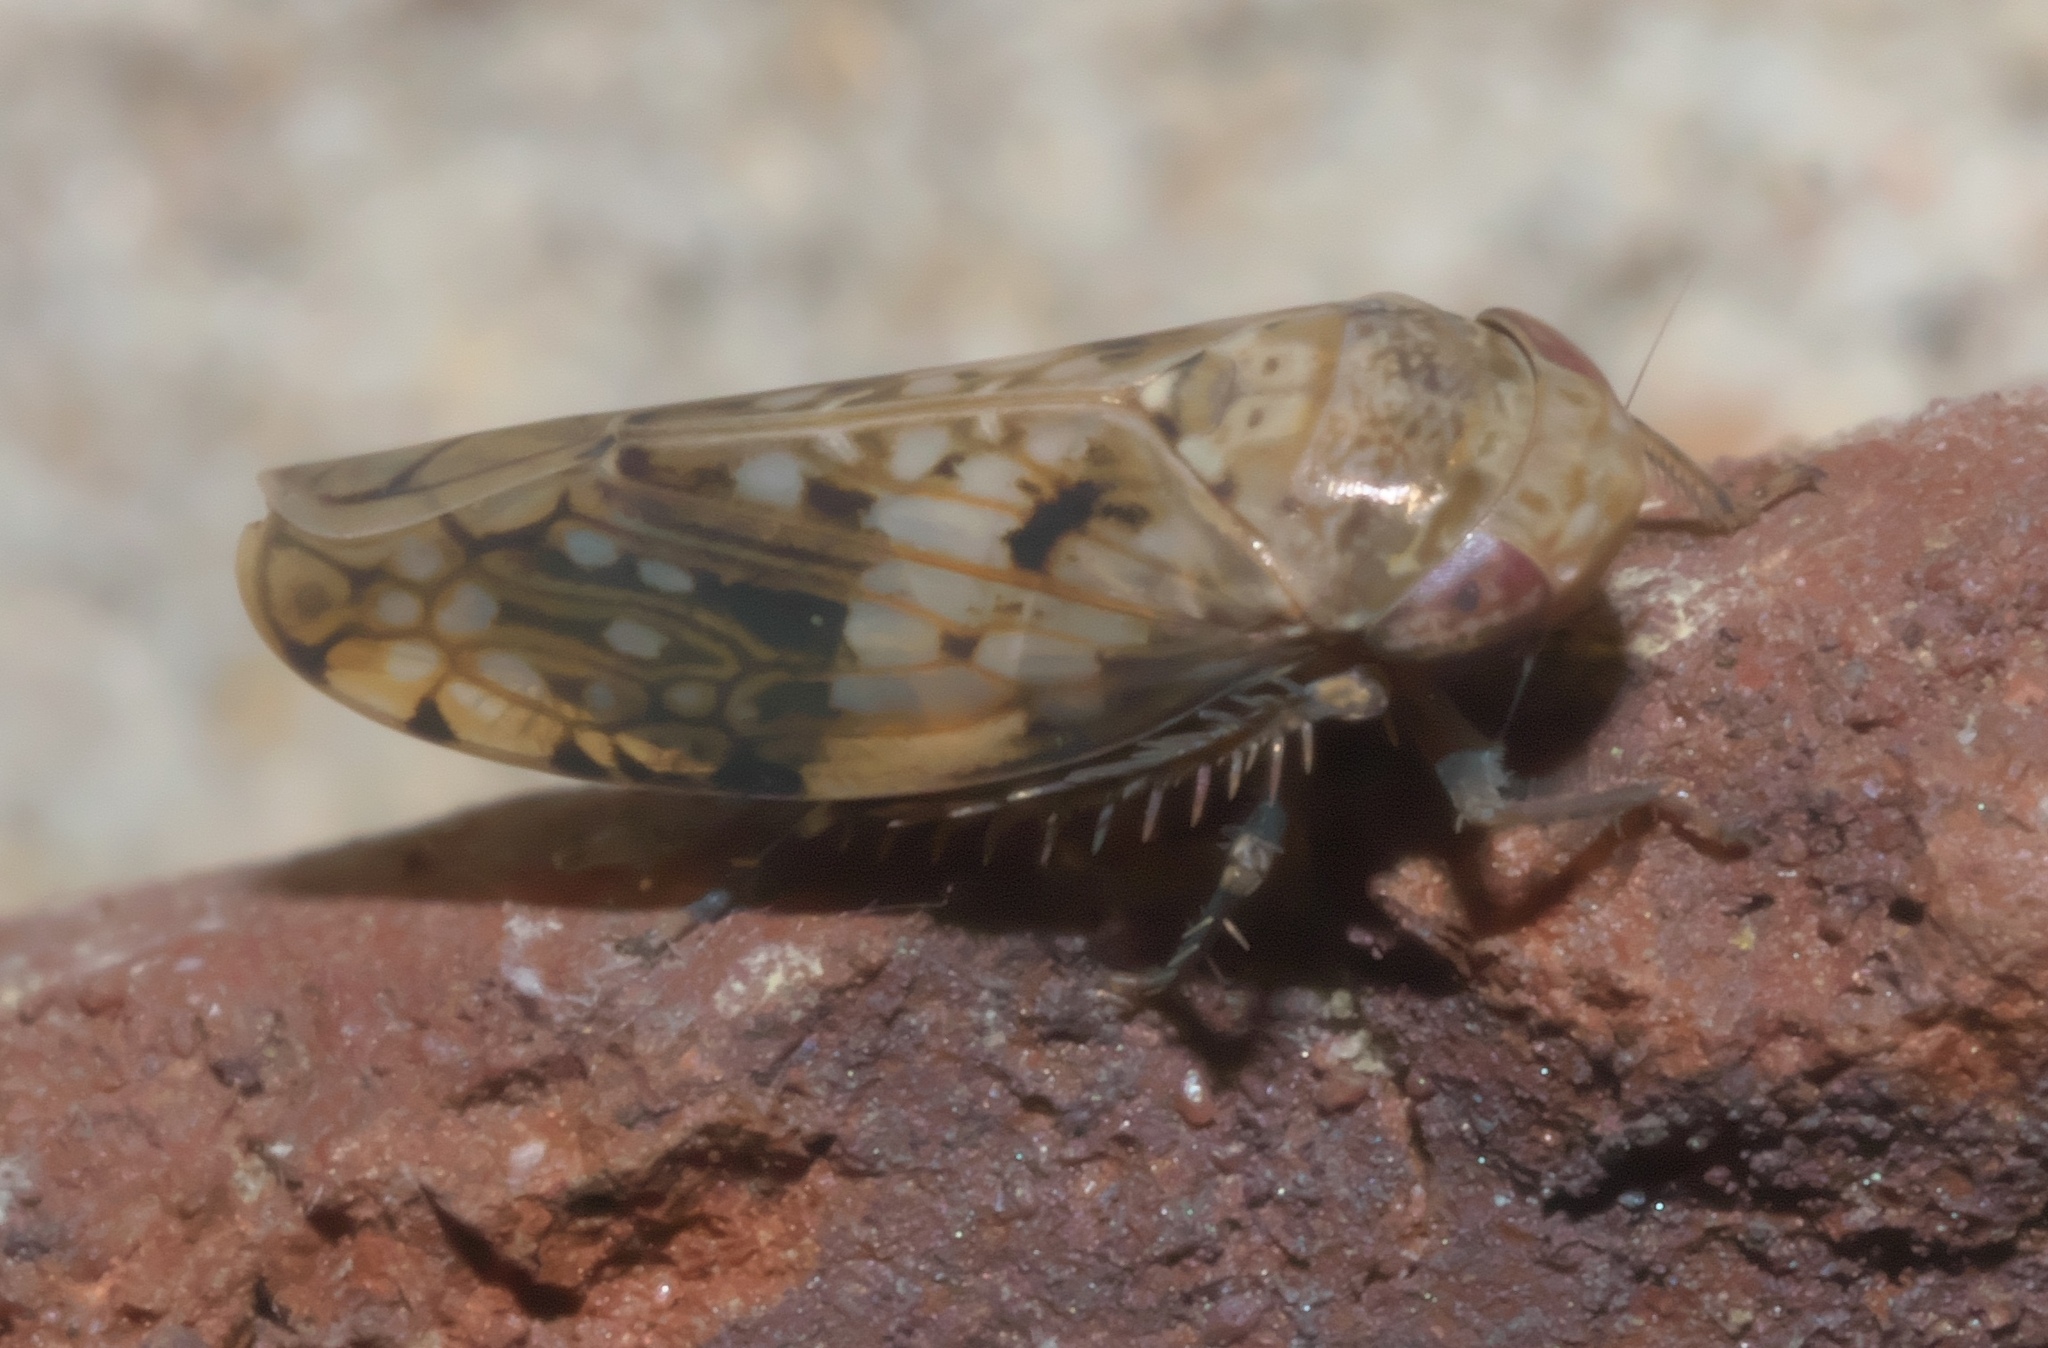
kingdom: Animalia
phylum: Arthropoda
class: Insecta
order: Hemiptera
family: Cicadellidae
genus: Menosoma
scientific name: Menosoma cinctum
